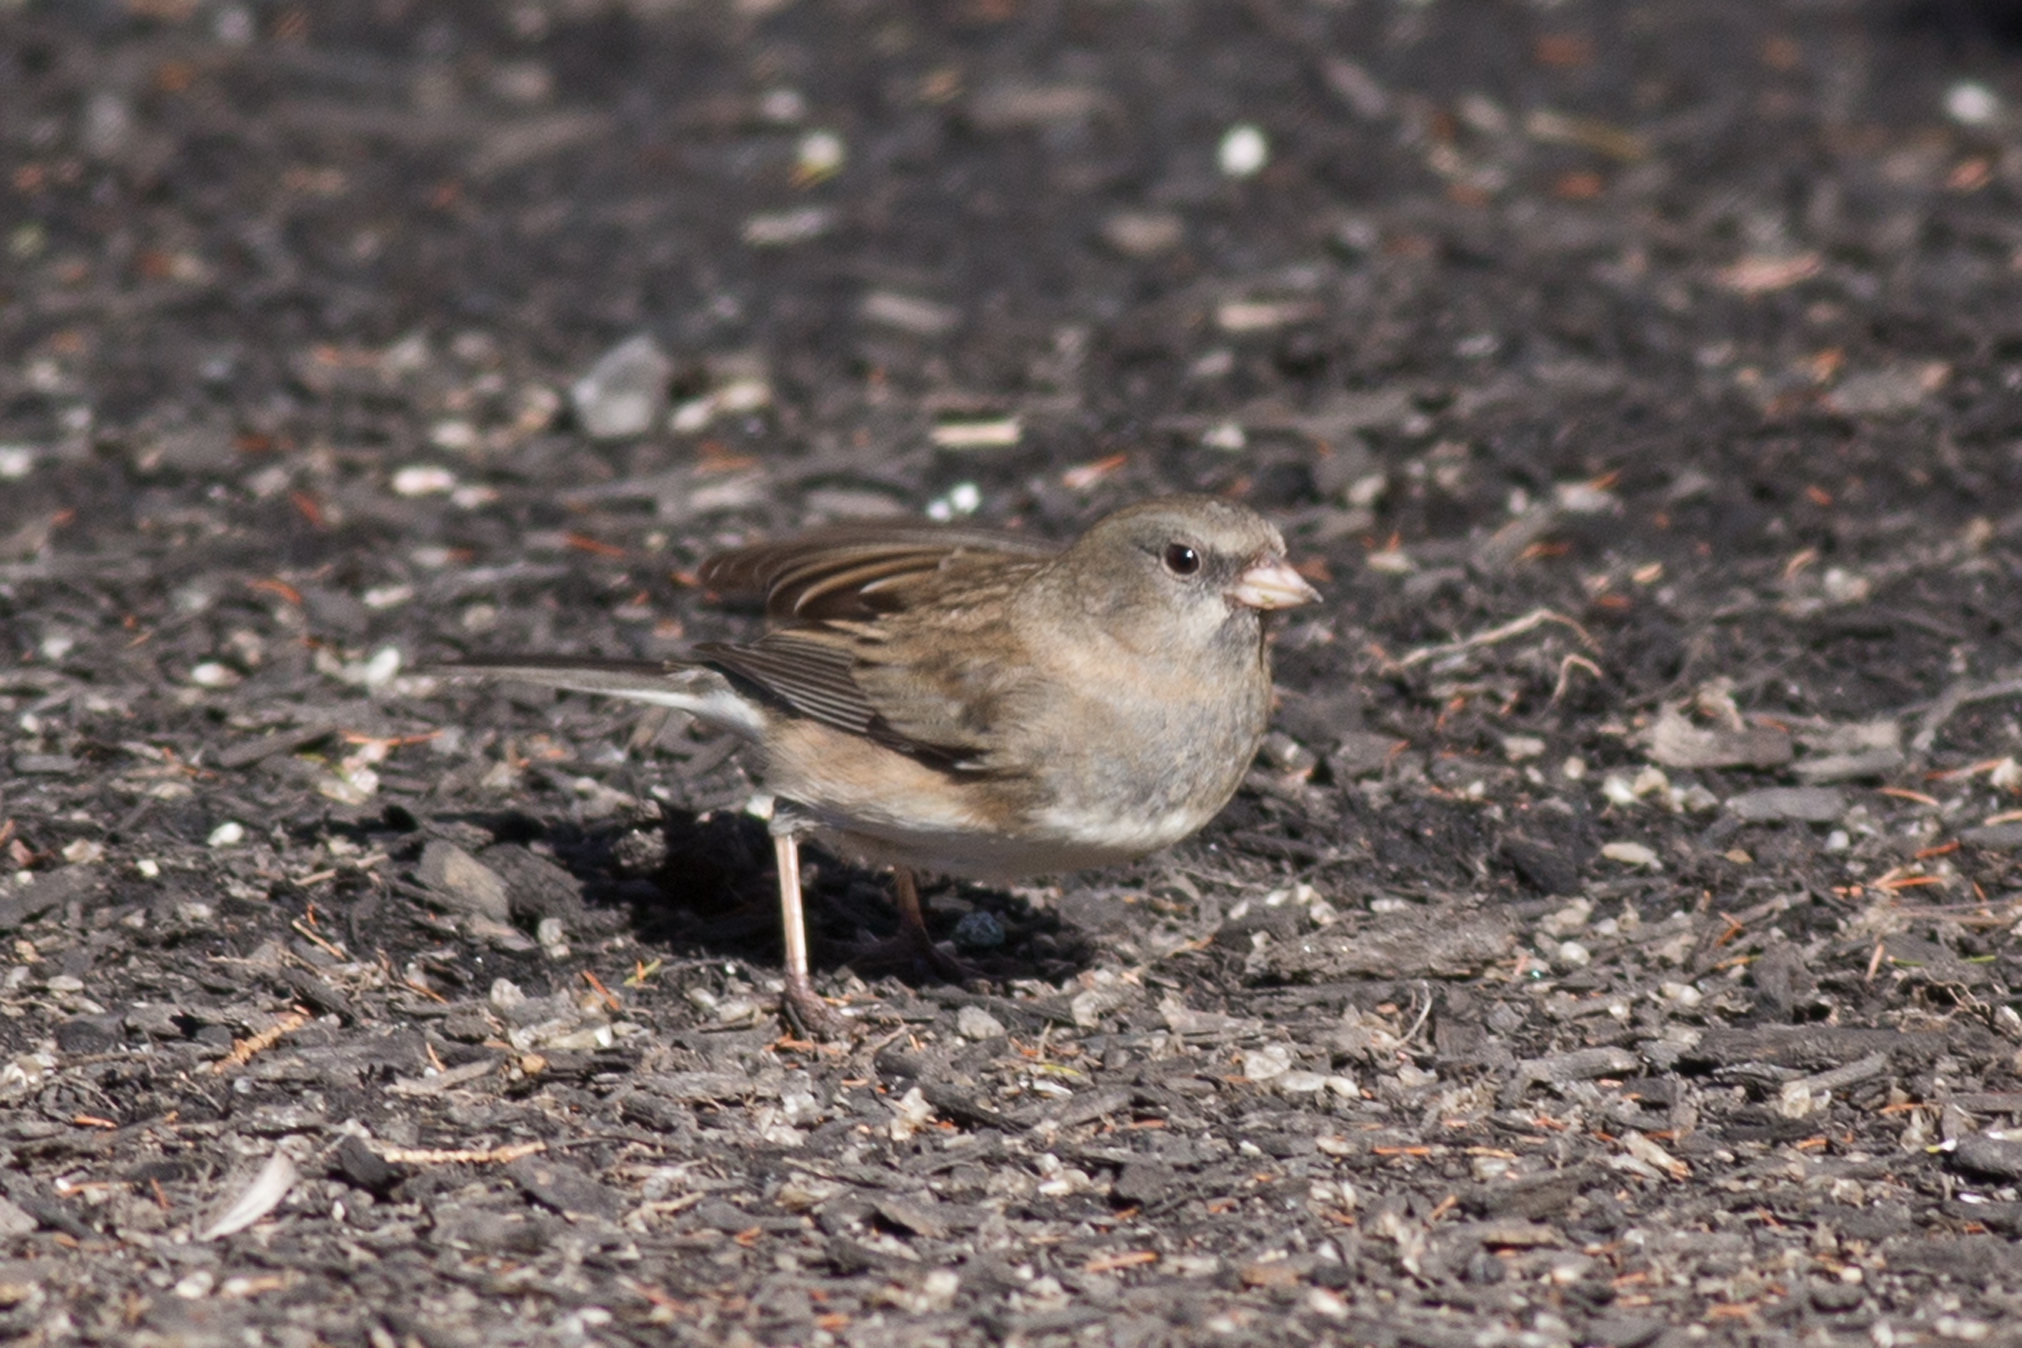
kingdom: Animalia
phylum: Chordata
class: Aves
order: Passeriformes
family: Passerellidae
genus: Junco
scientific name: Junco hyemalis
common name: Dark-eyed junco
